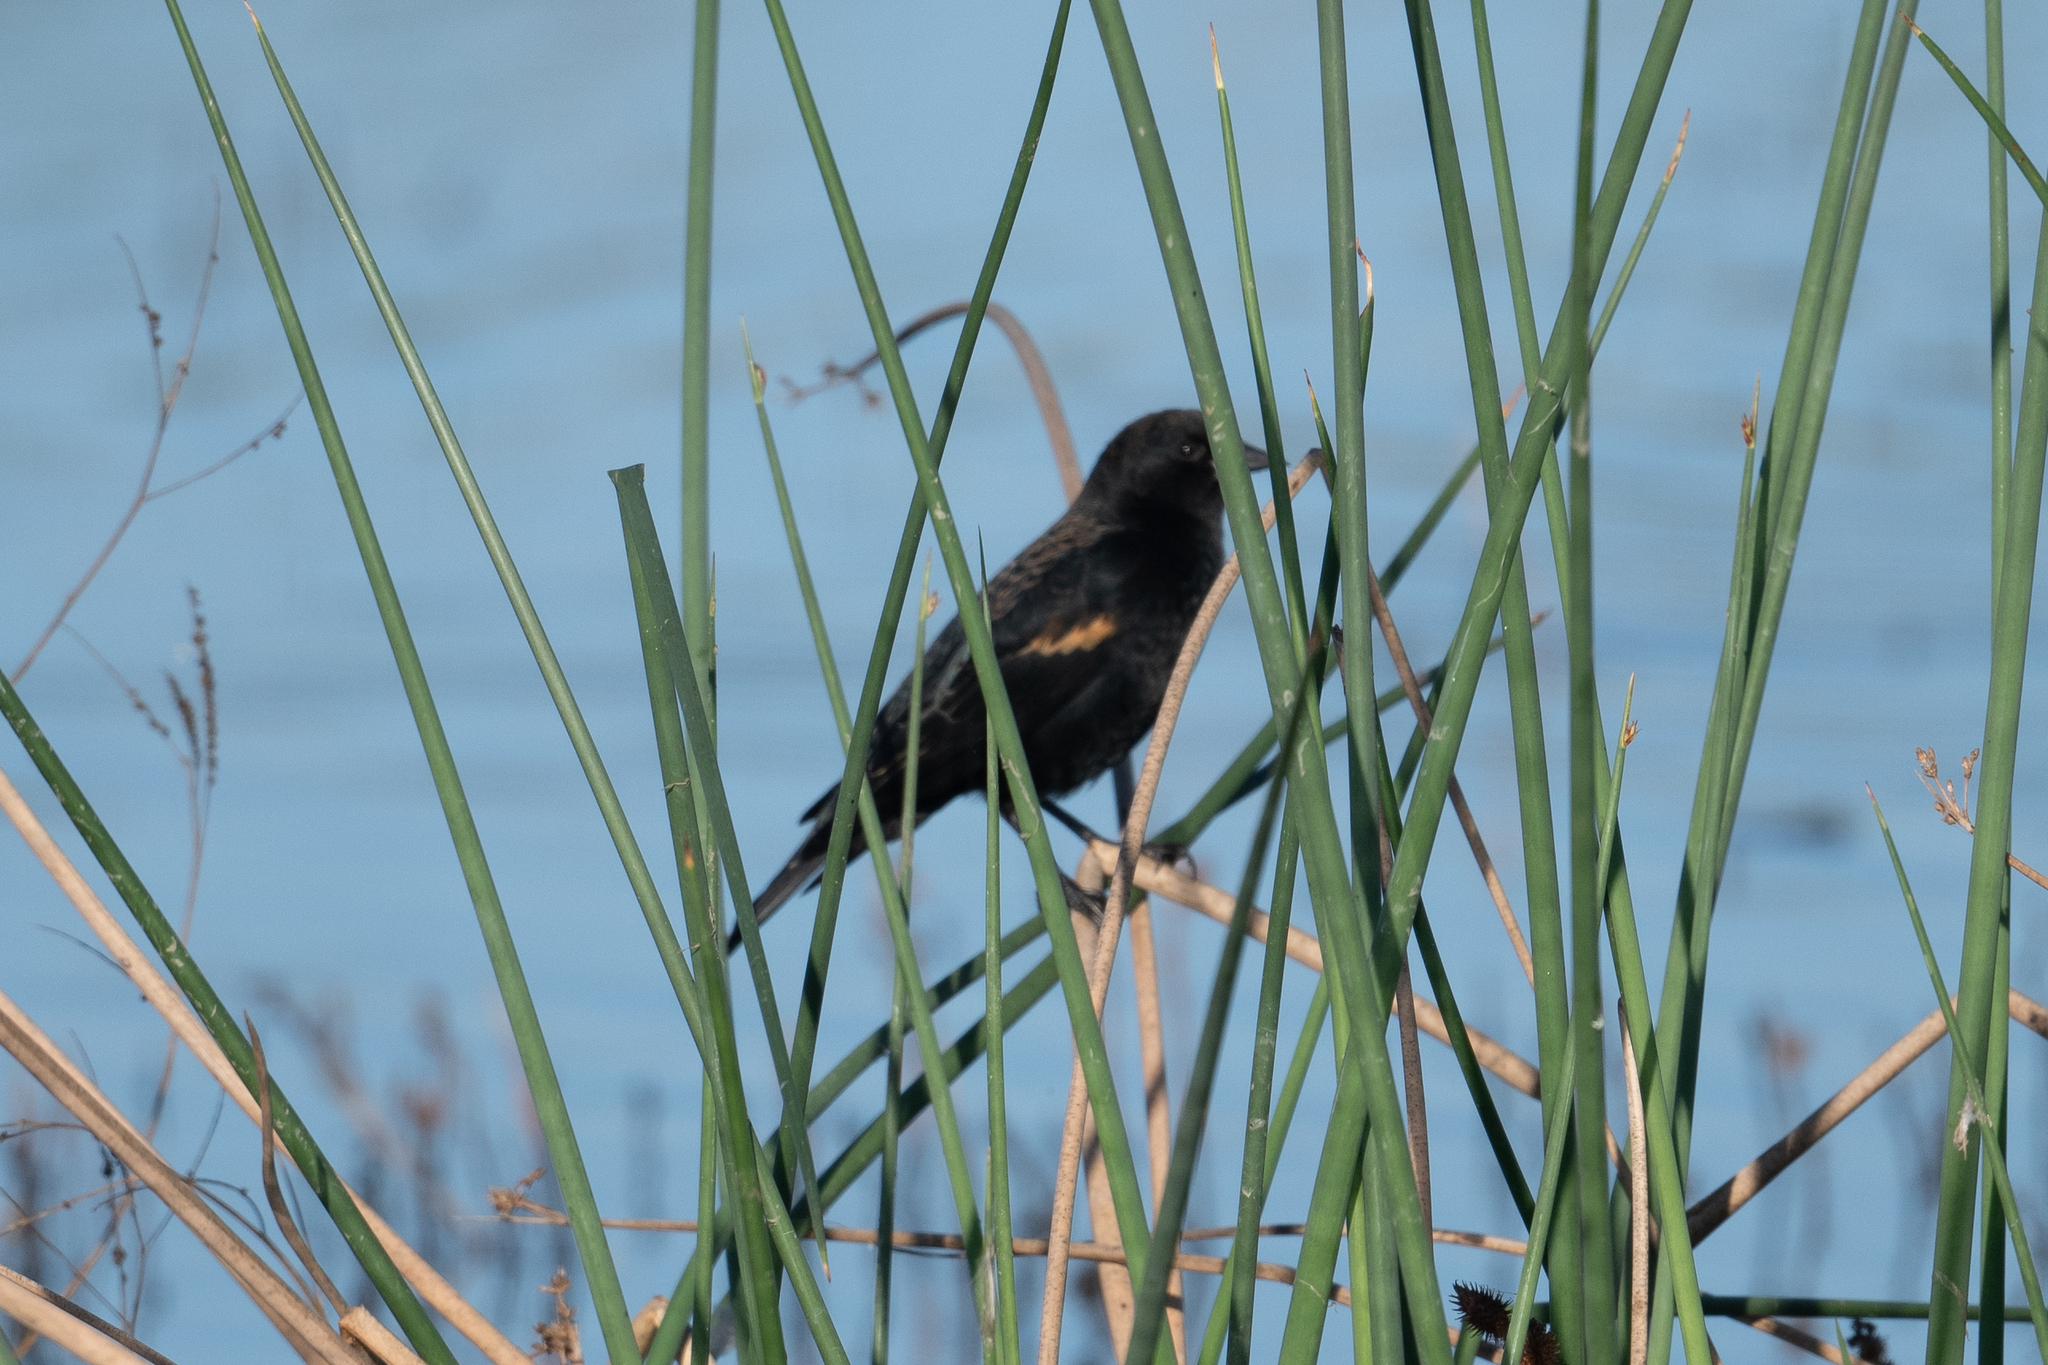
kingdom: Animalia
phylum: Chordata
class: Aves
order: Passeriformes
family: Icteridae
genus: Agelaius
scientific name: Agelaius phoeniceus
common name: Red-winged blackbird
